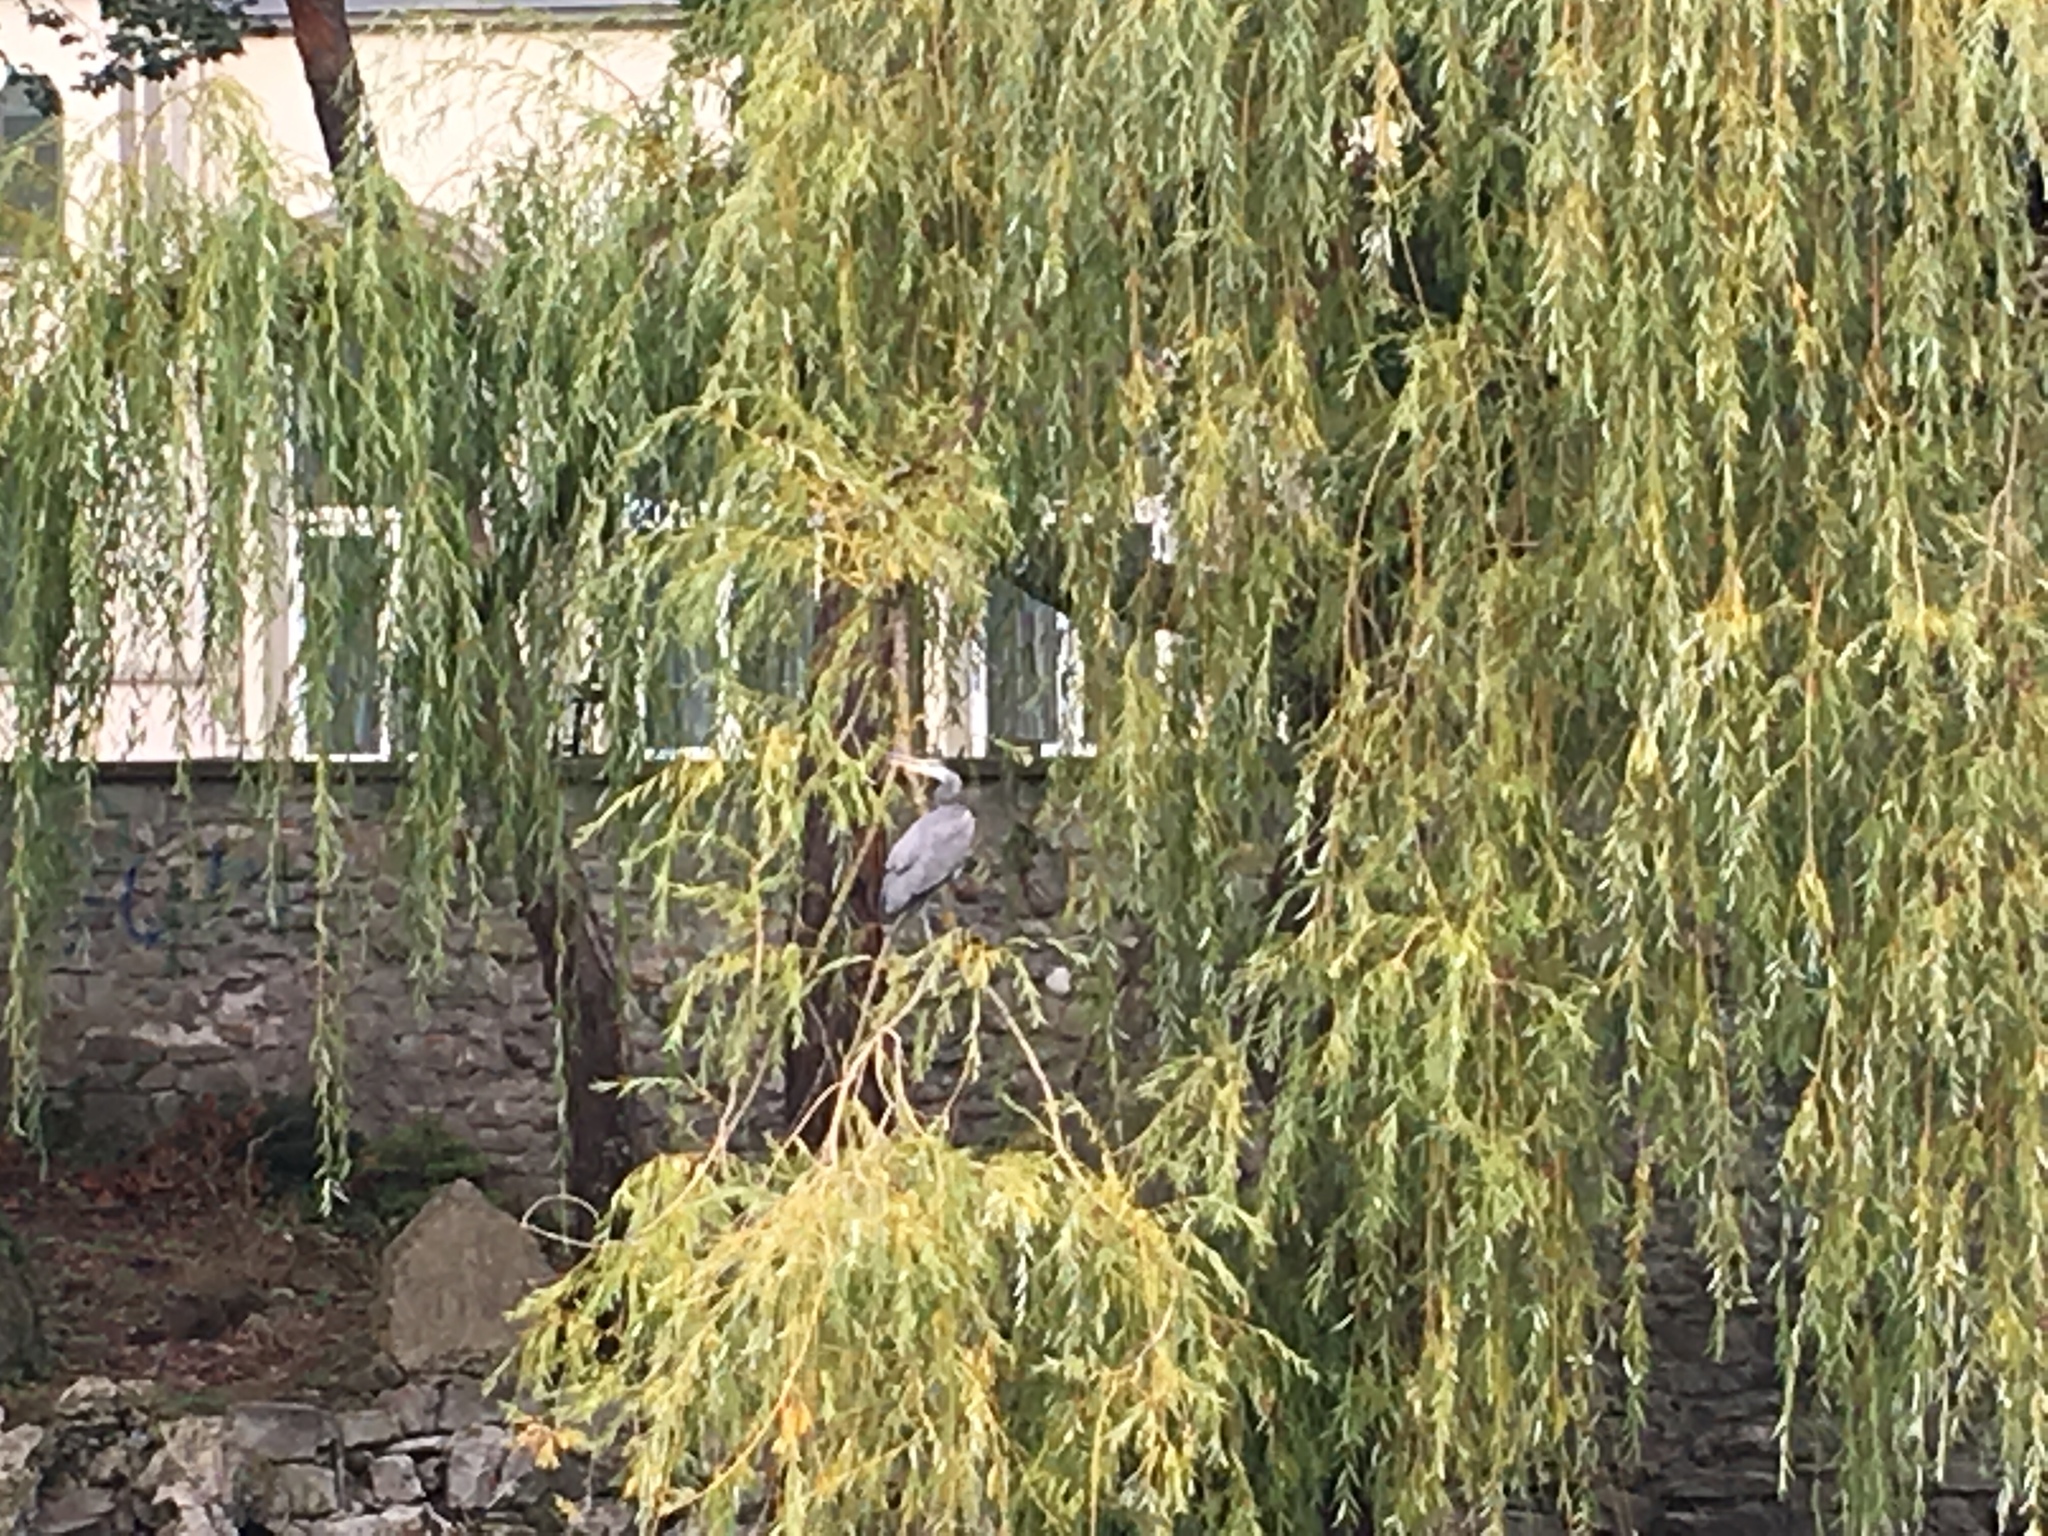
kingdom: Animalia
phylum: Chordata
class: Aves
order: Pelecaniformes
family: Ardeidae
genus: Ardea
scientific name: Ardea cinerea
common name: Grey heron
